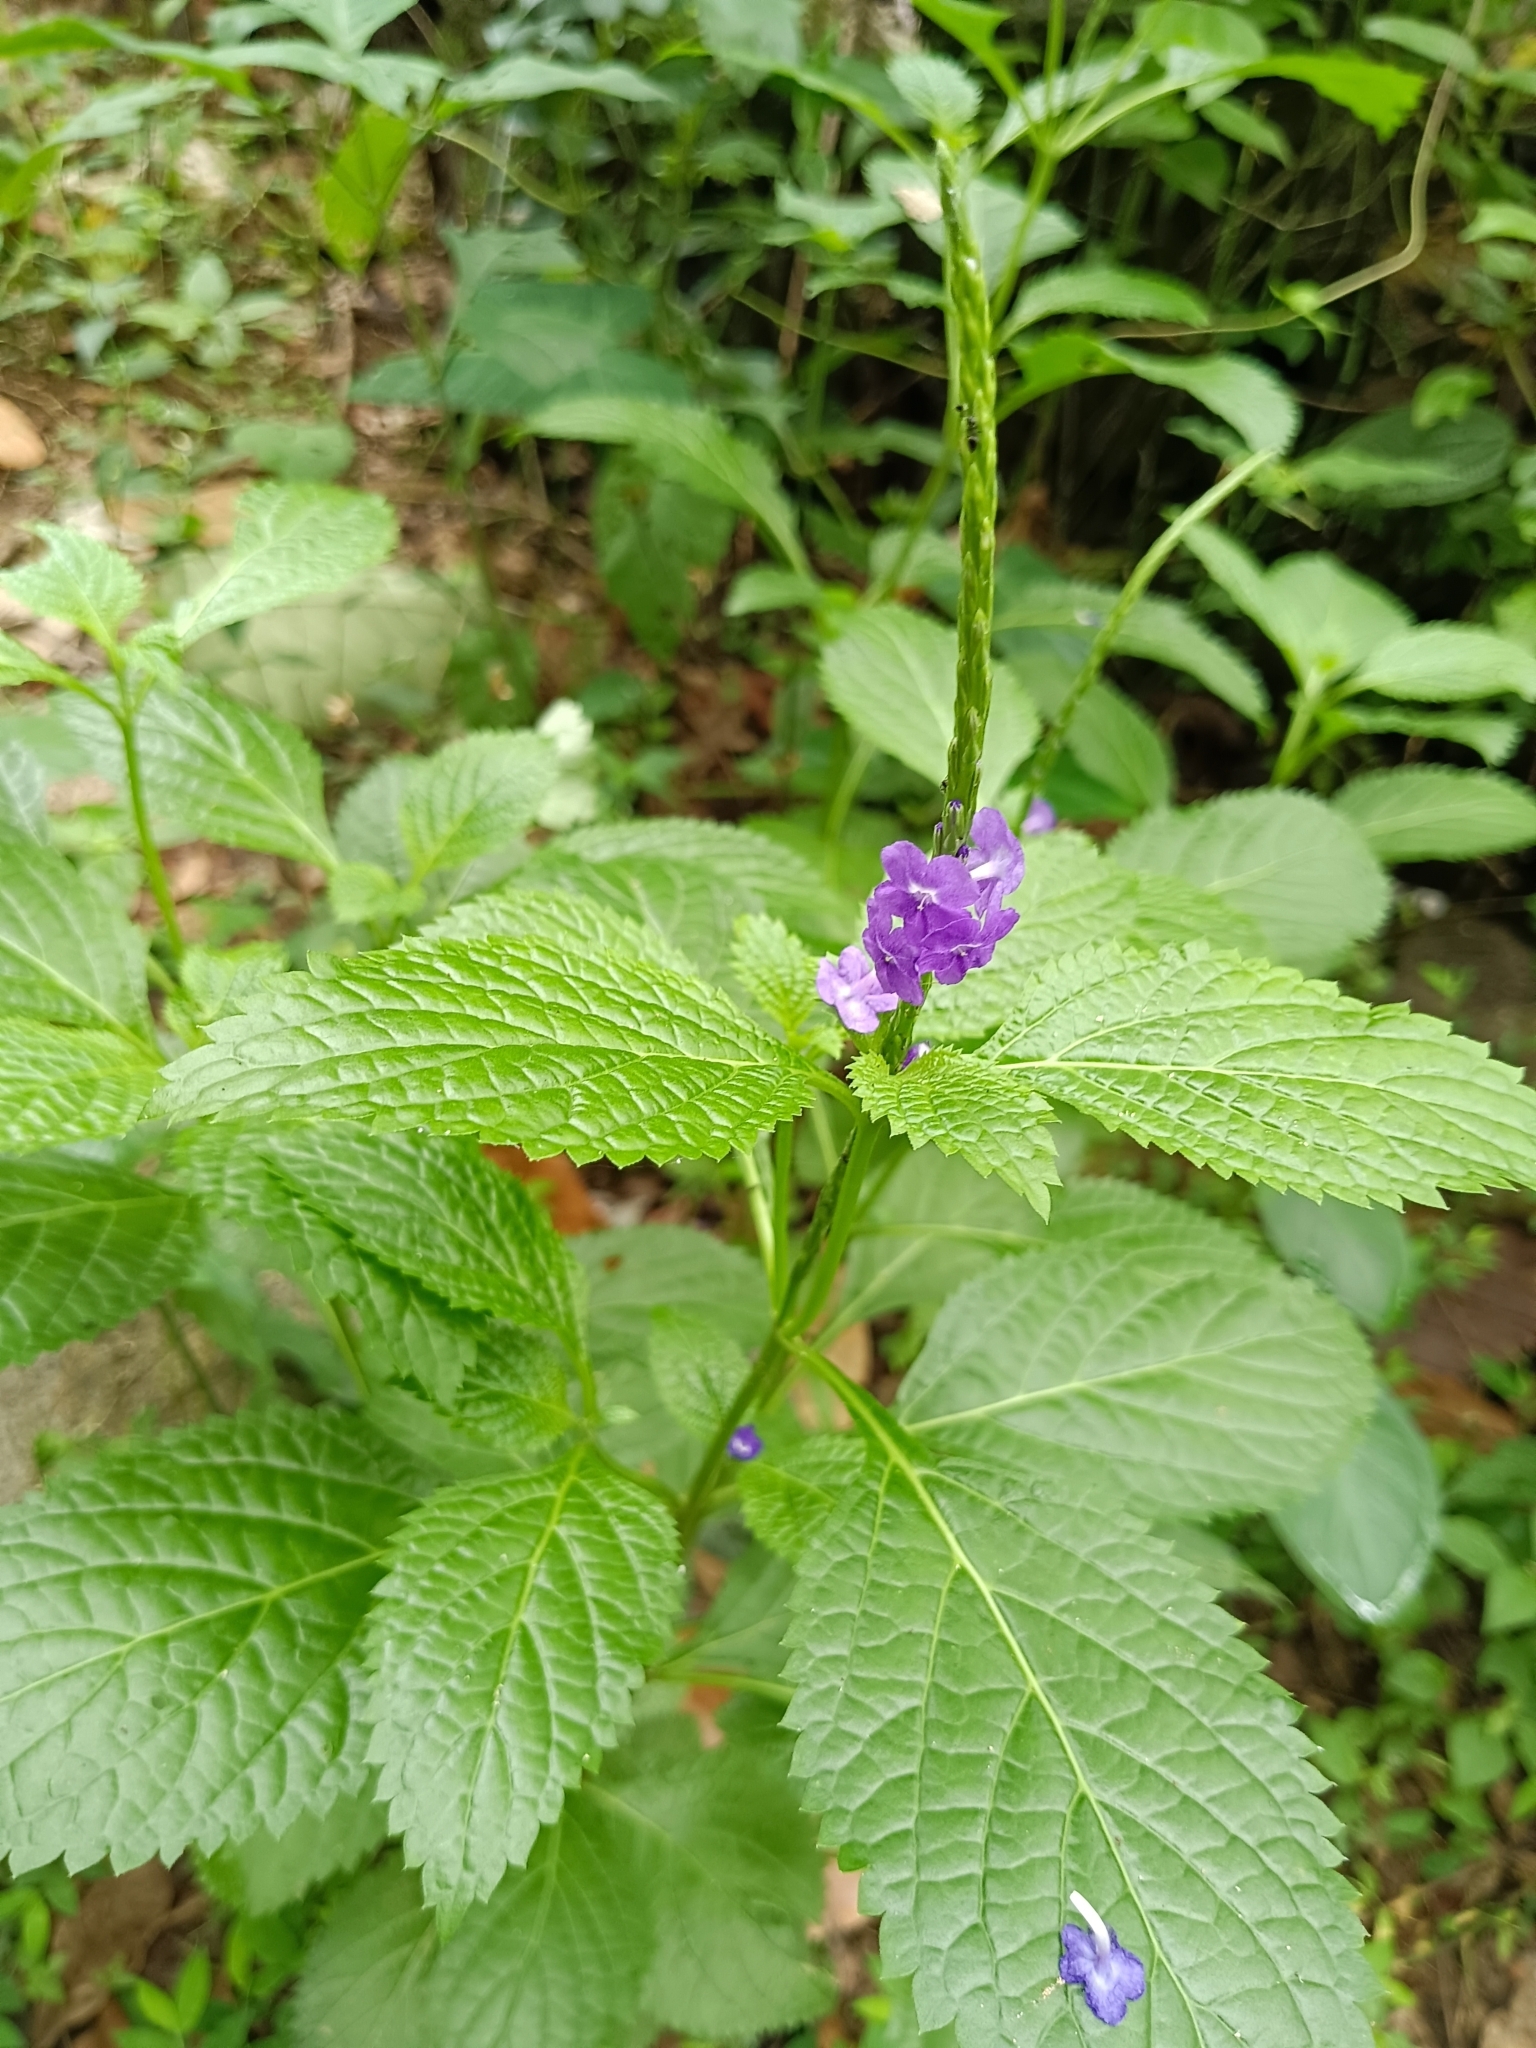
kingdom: Plantae
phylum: Tracheophyta
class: Magnoliopsida
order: Lamiales
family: Verbenaceae
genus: Stachytarpheta
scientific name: Stachytarpheta cayennensis
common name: Cayenne porterweed
